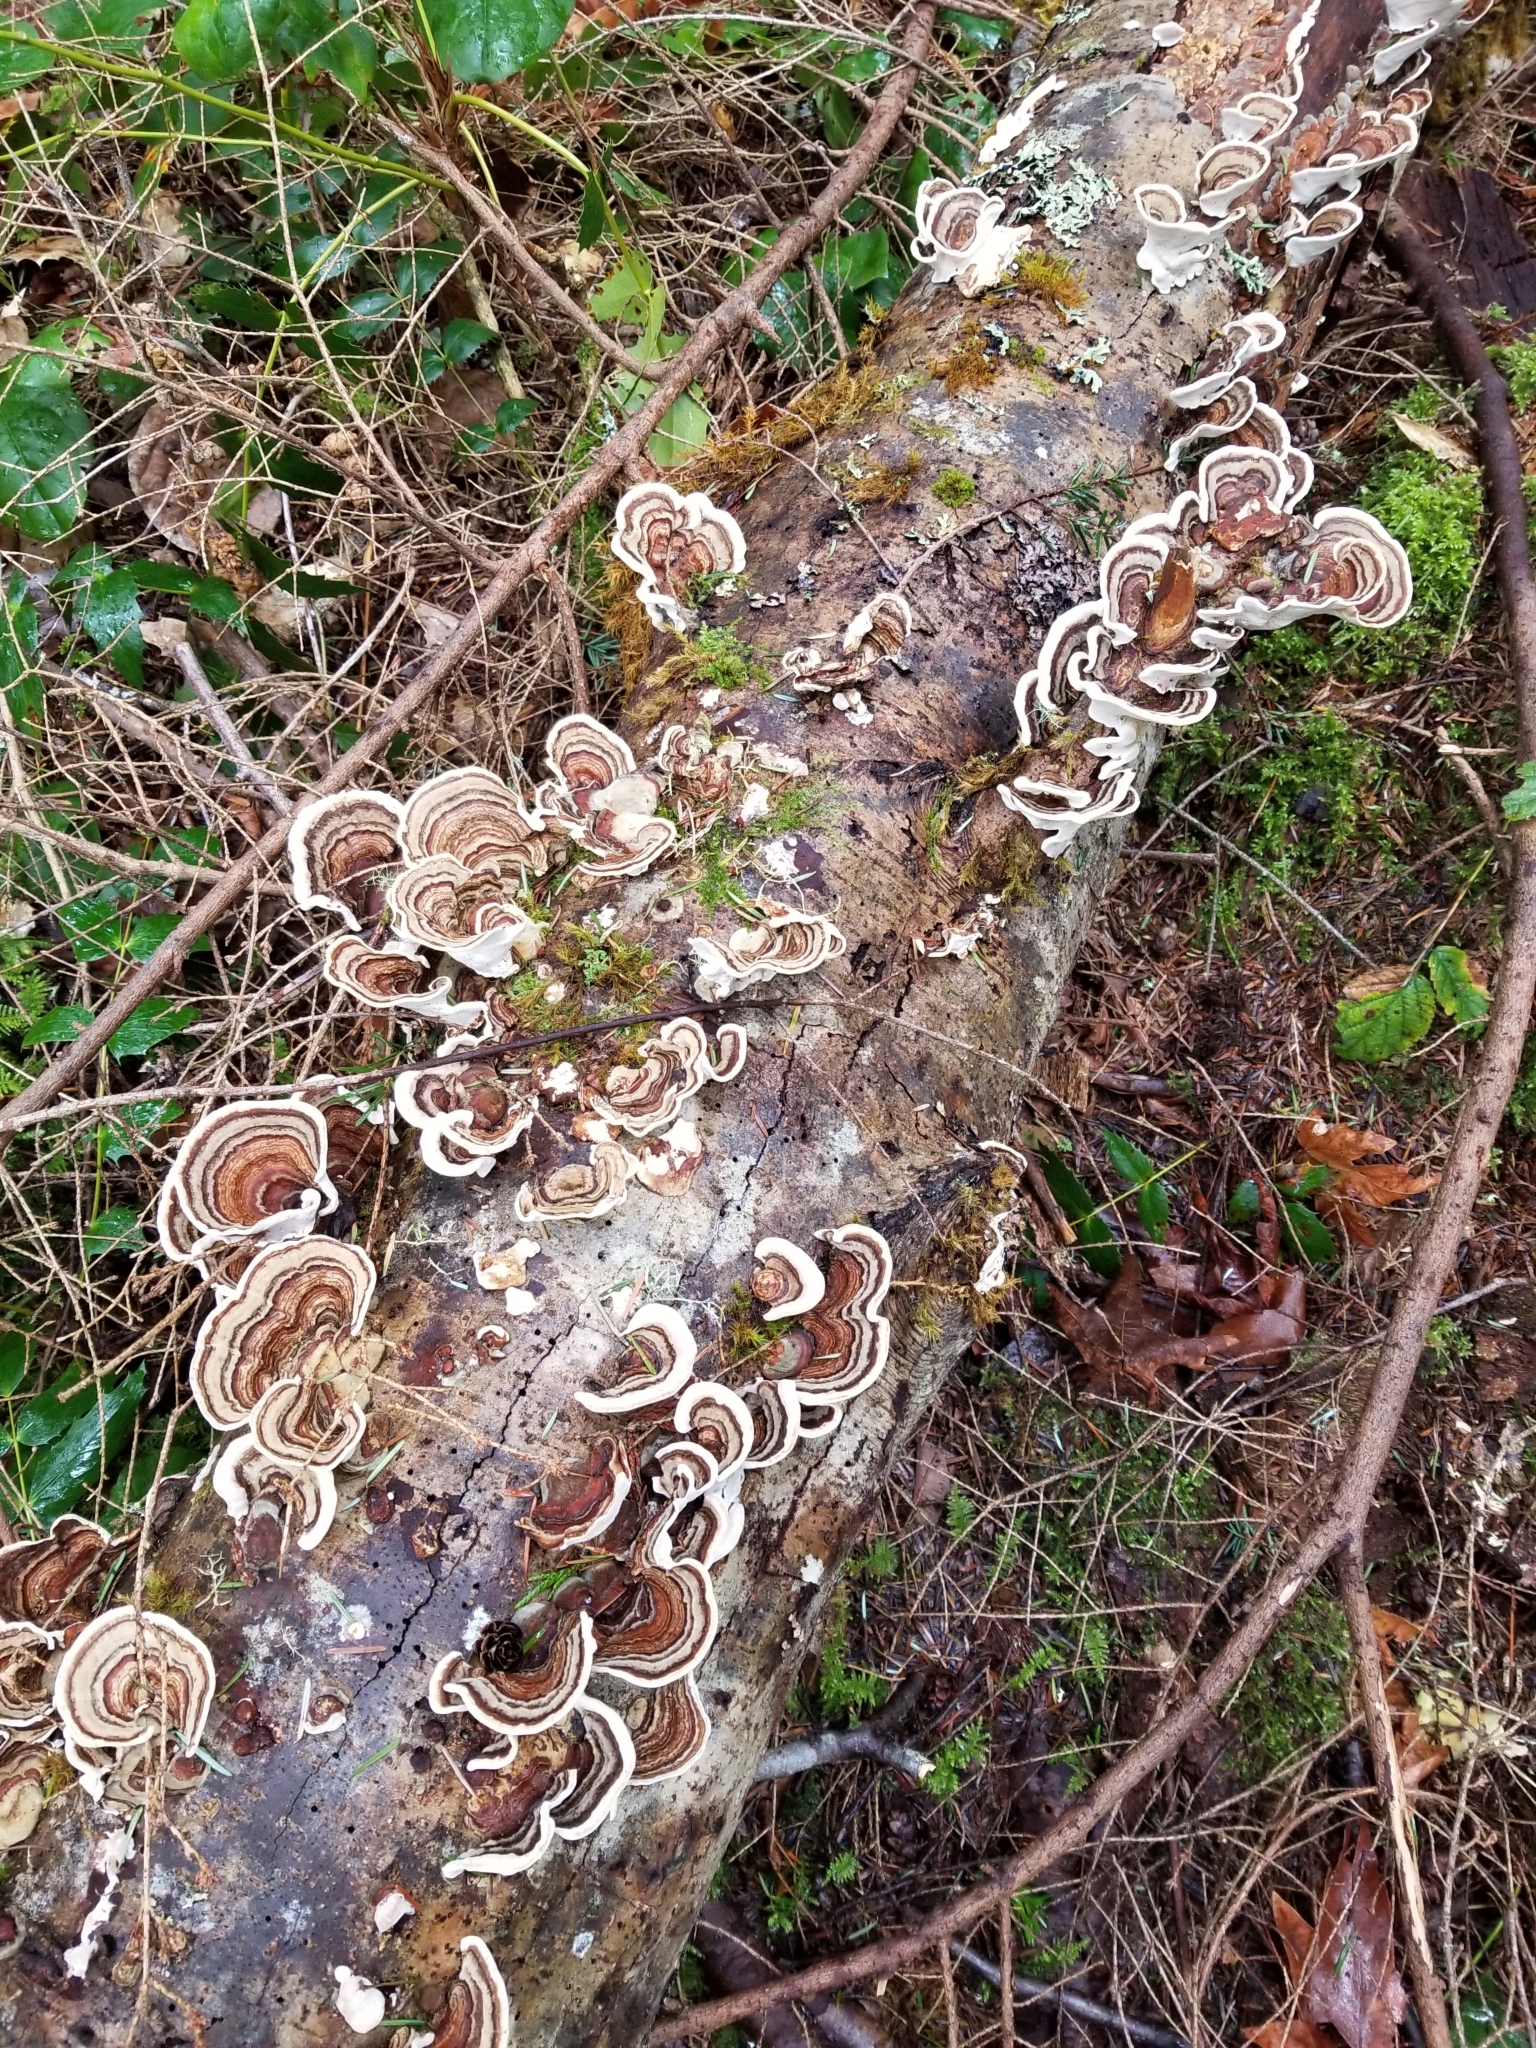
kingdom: Fungi
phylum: Basidiomycota
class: Agaricomycetes
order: Polyporales
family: Polyporaceae
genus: Trametes
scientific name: Trametes versicolor
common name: Turkeytail
